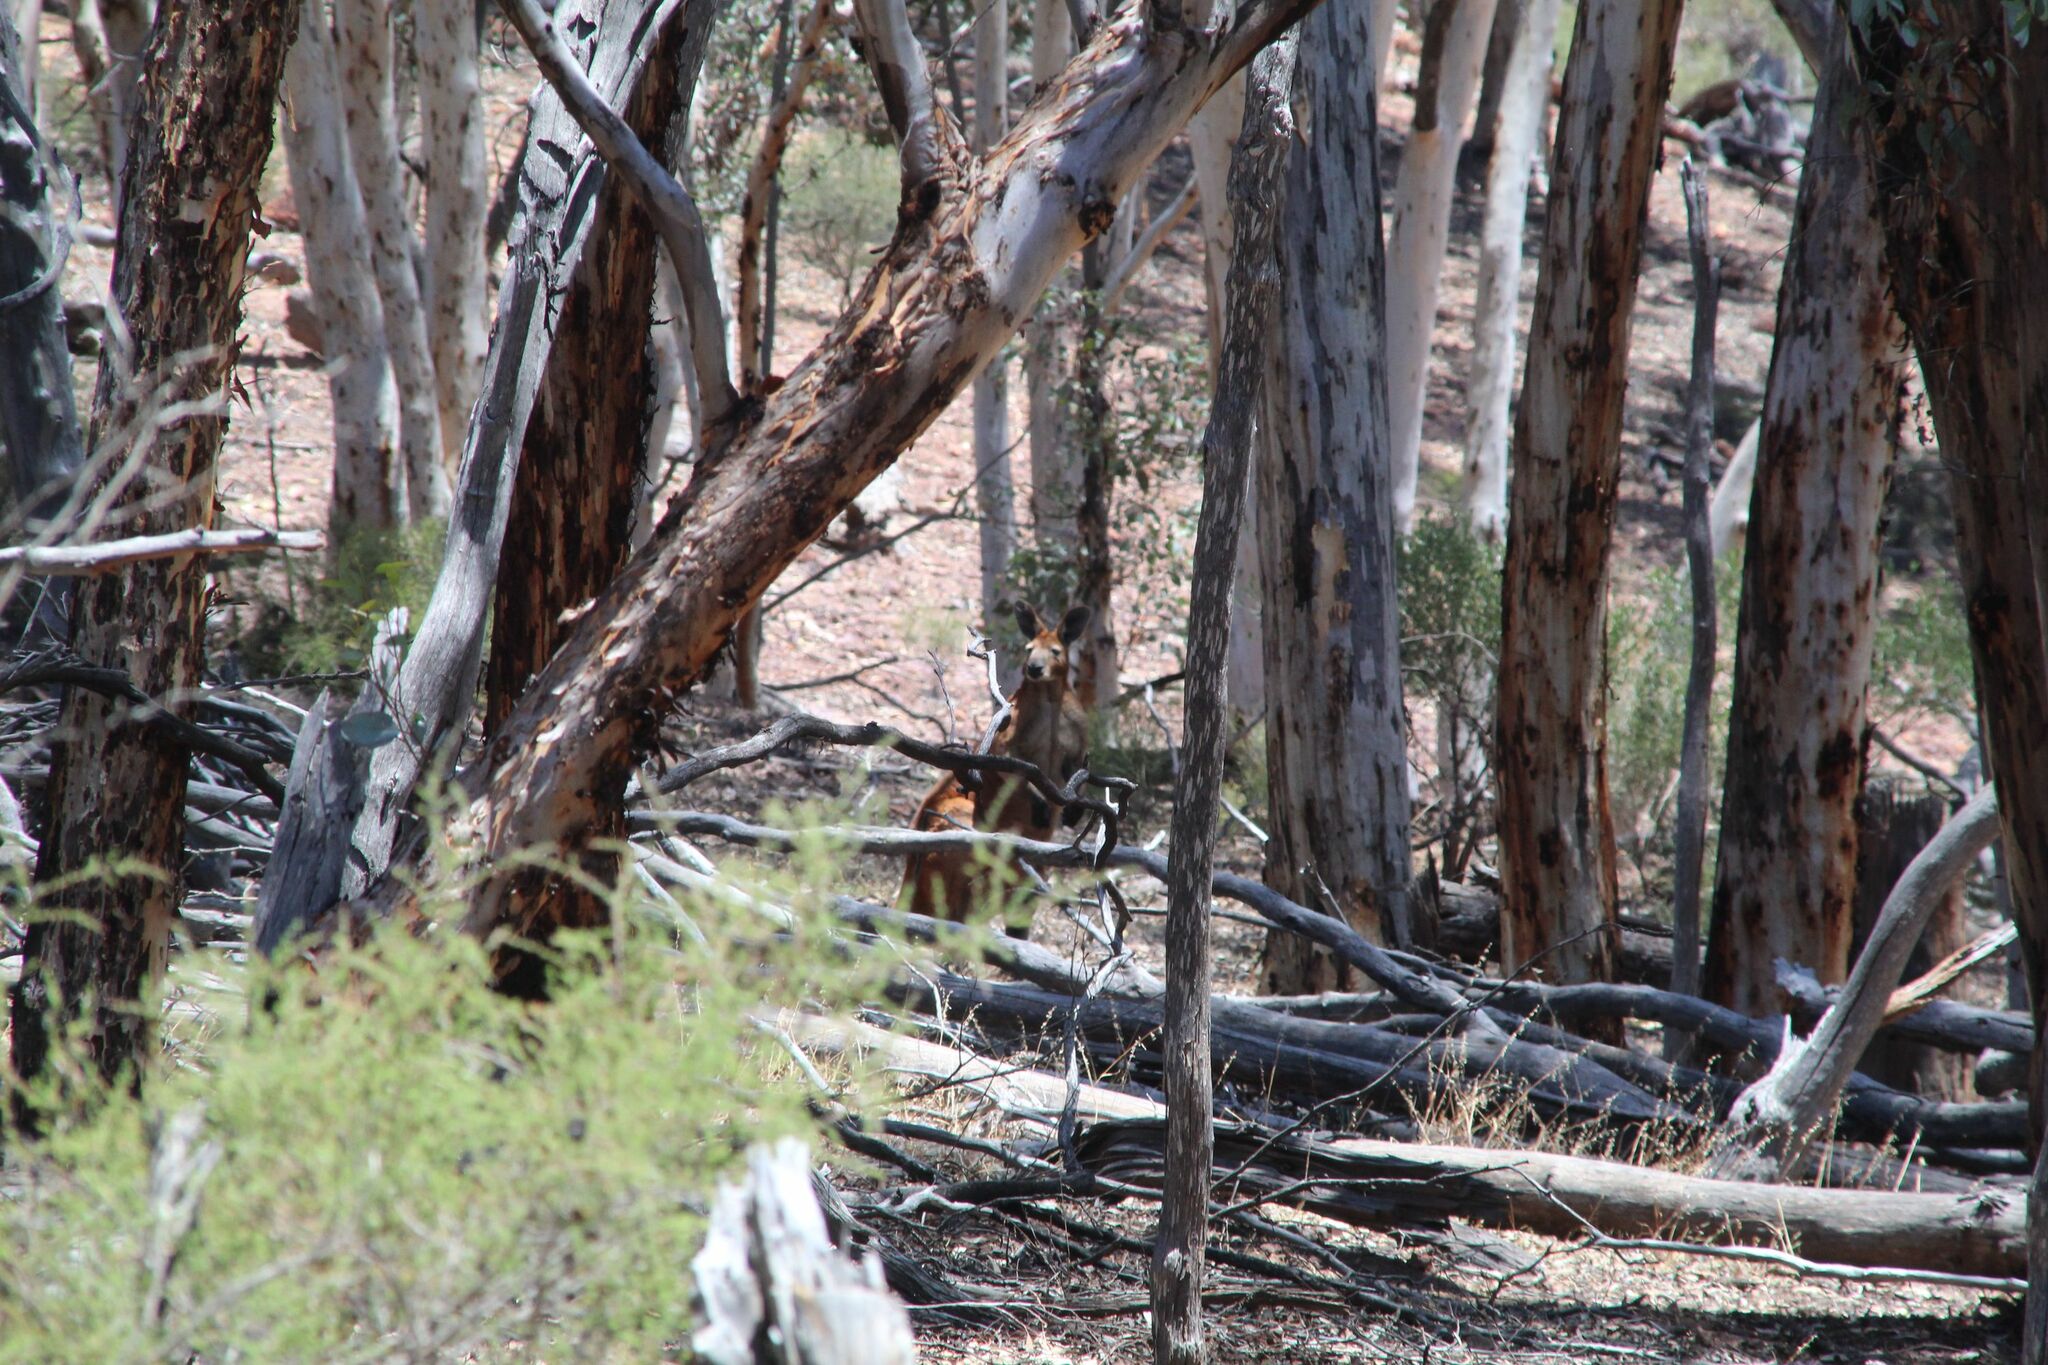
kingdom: Animalia
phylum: Chordata
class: Mammalia
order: Diprotodontia
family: Macropodidae
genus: Macropus
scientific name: Macropus robustus
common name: Eastern wallaroo
